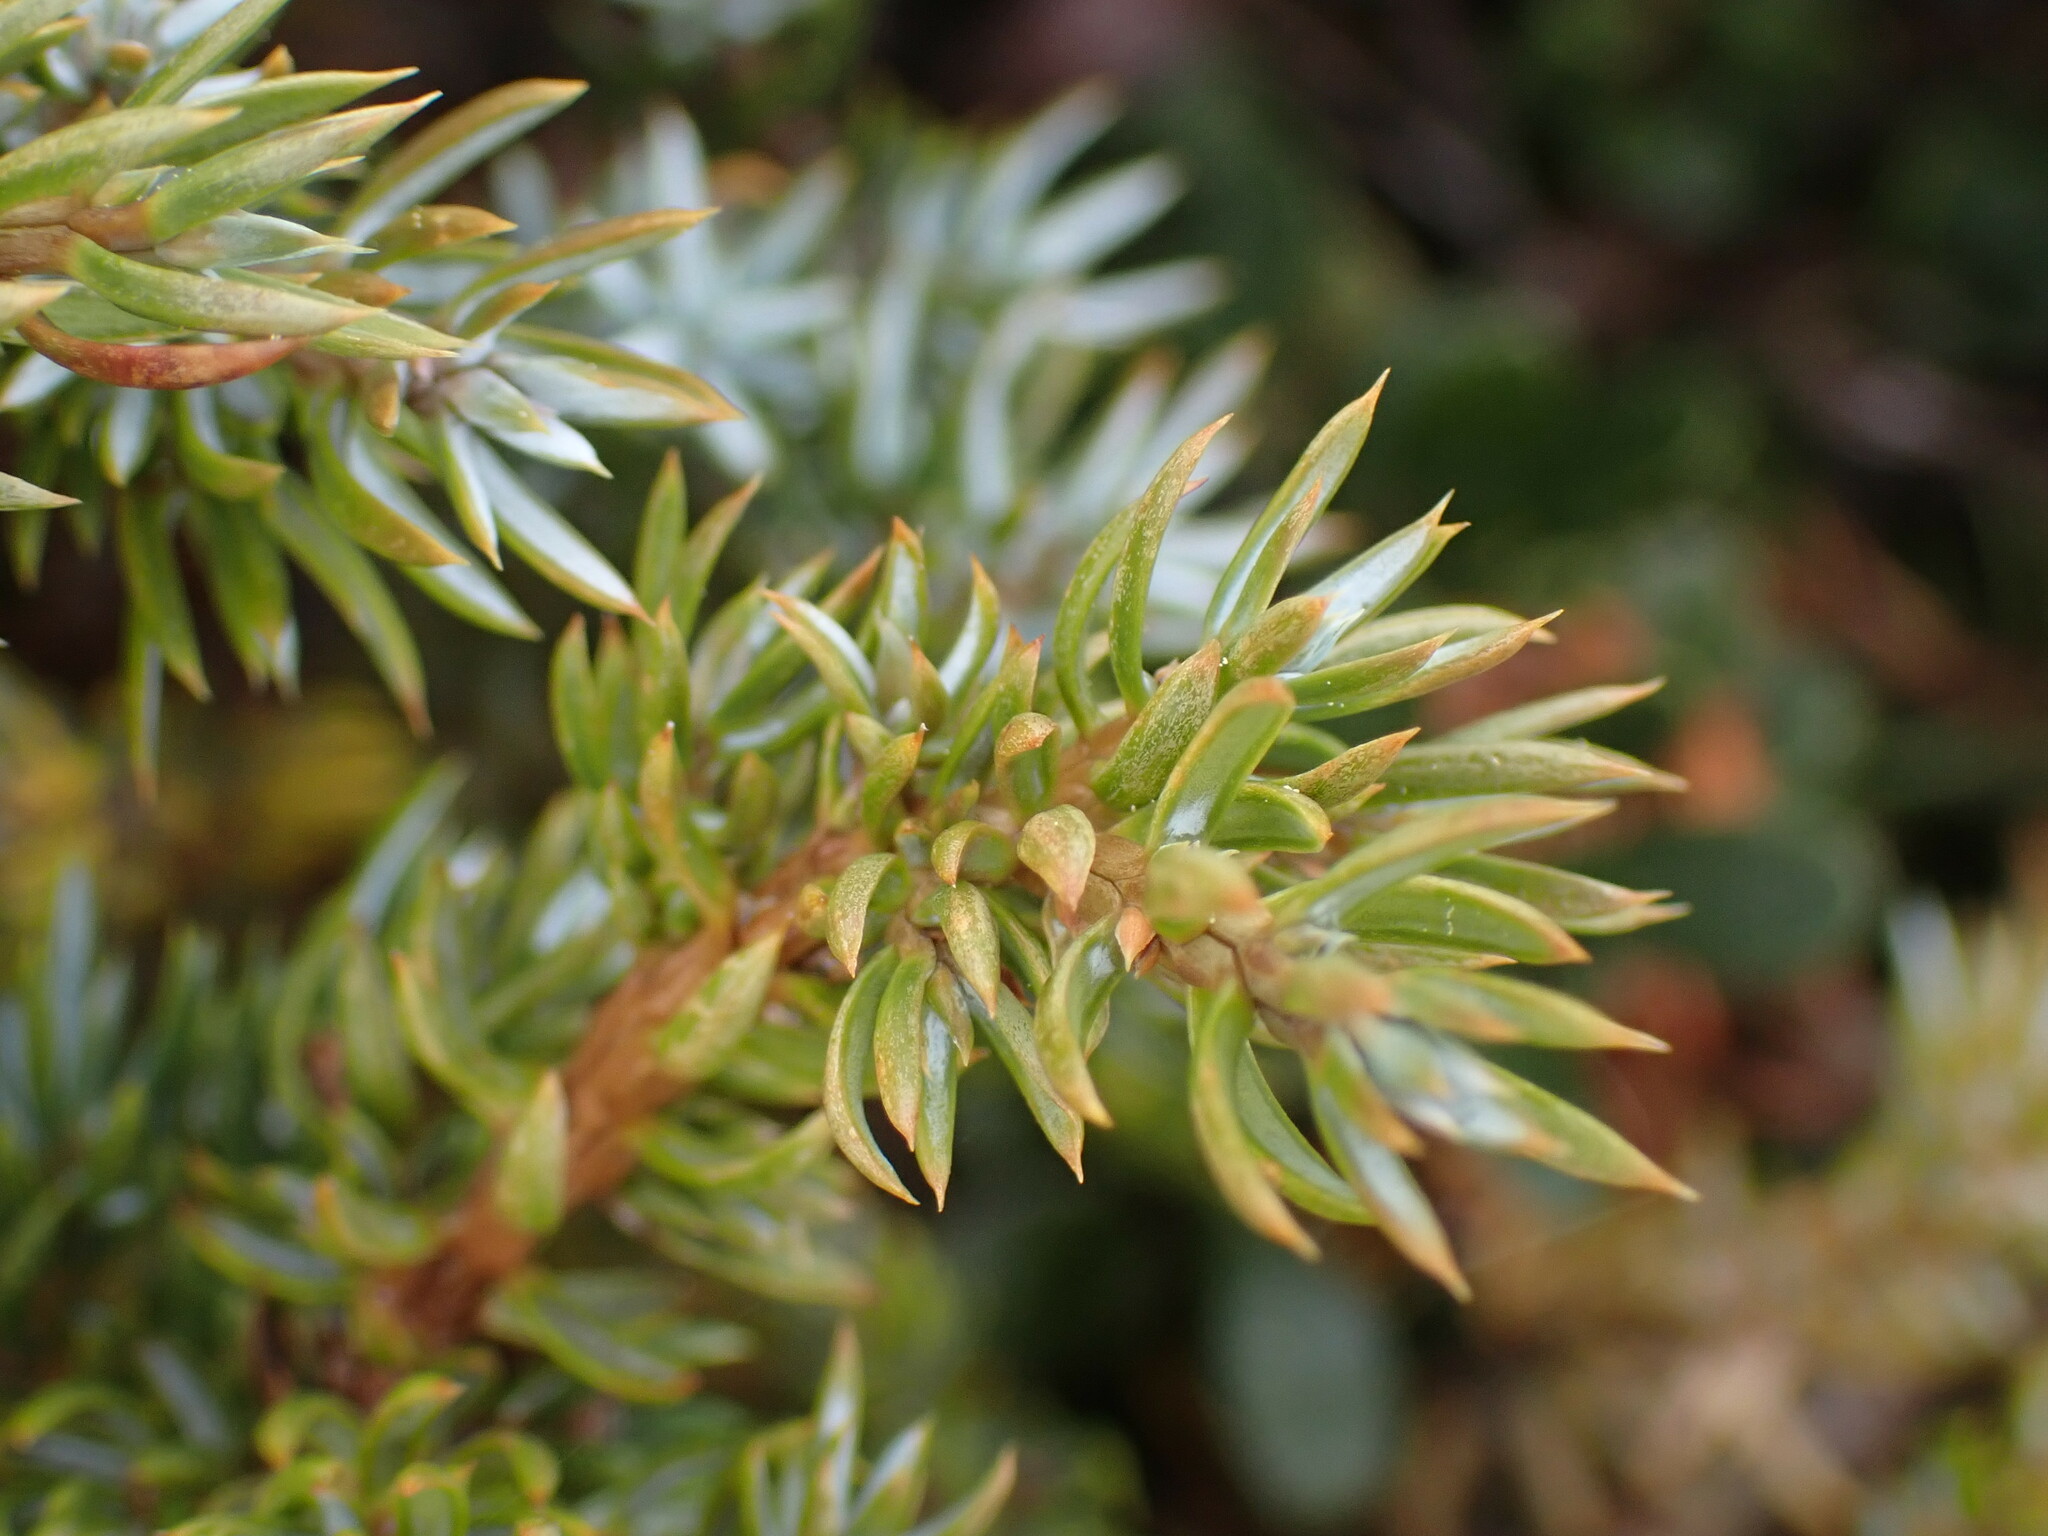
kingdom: Plantae
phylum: Tracheophyta
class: Pinopsida
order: Pinales
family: Cupressaceae
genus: Juniperus
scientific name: Juniperus communis
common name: Common juniper
